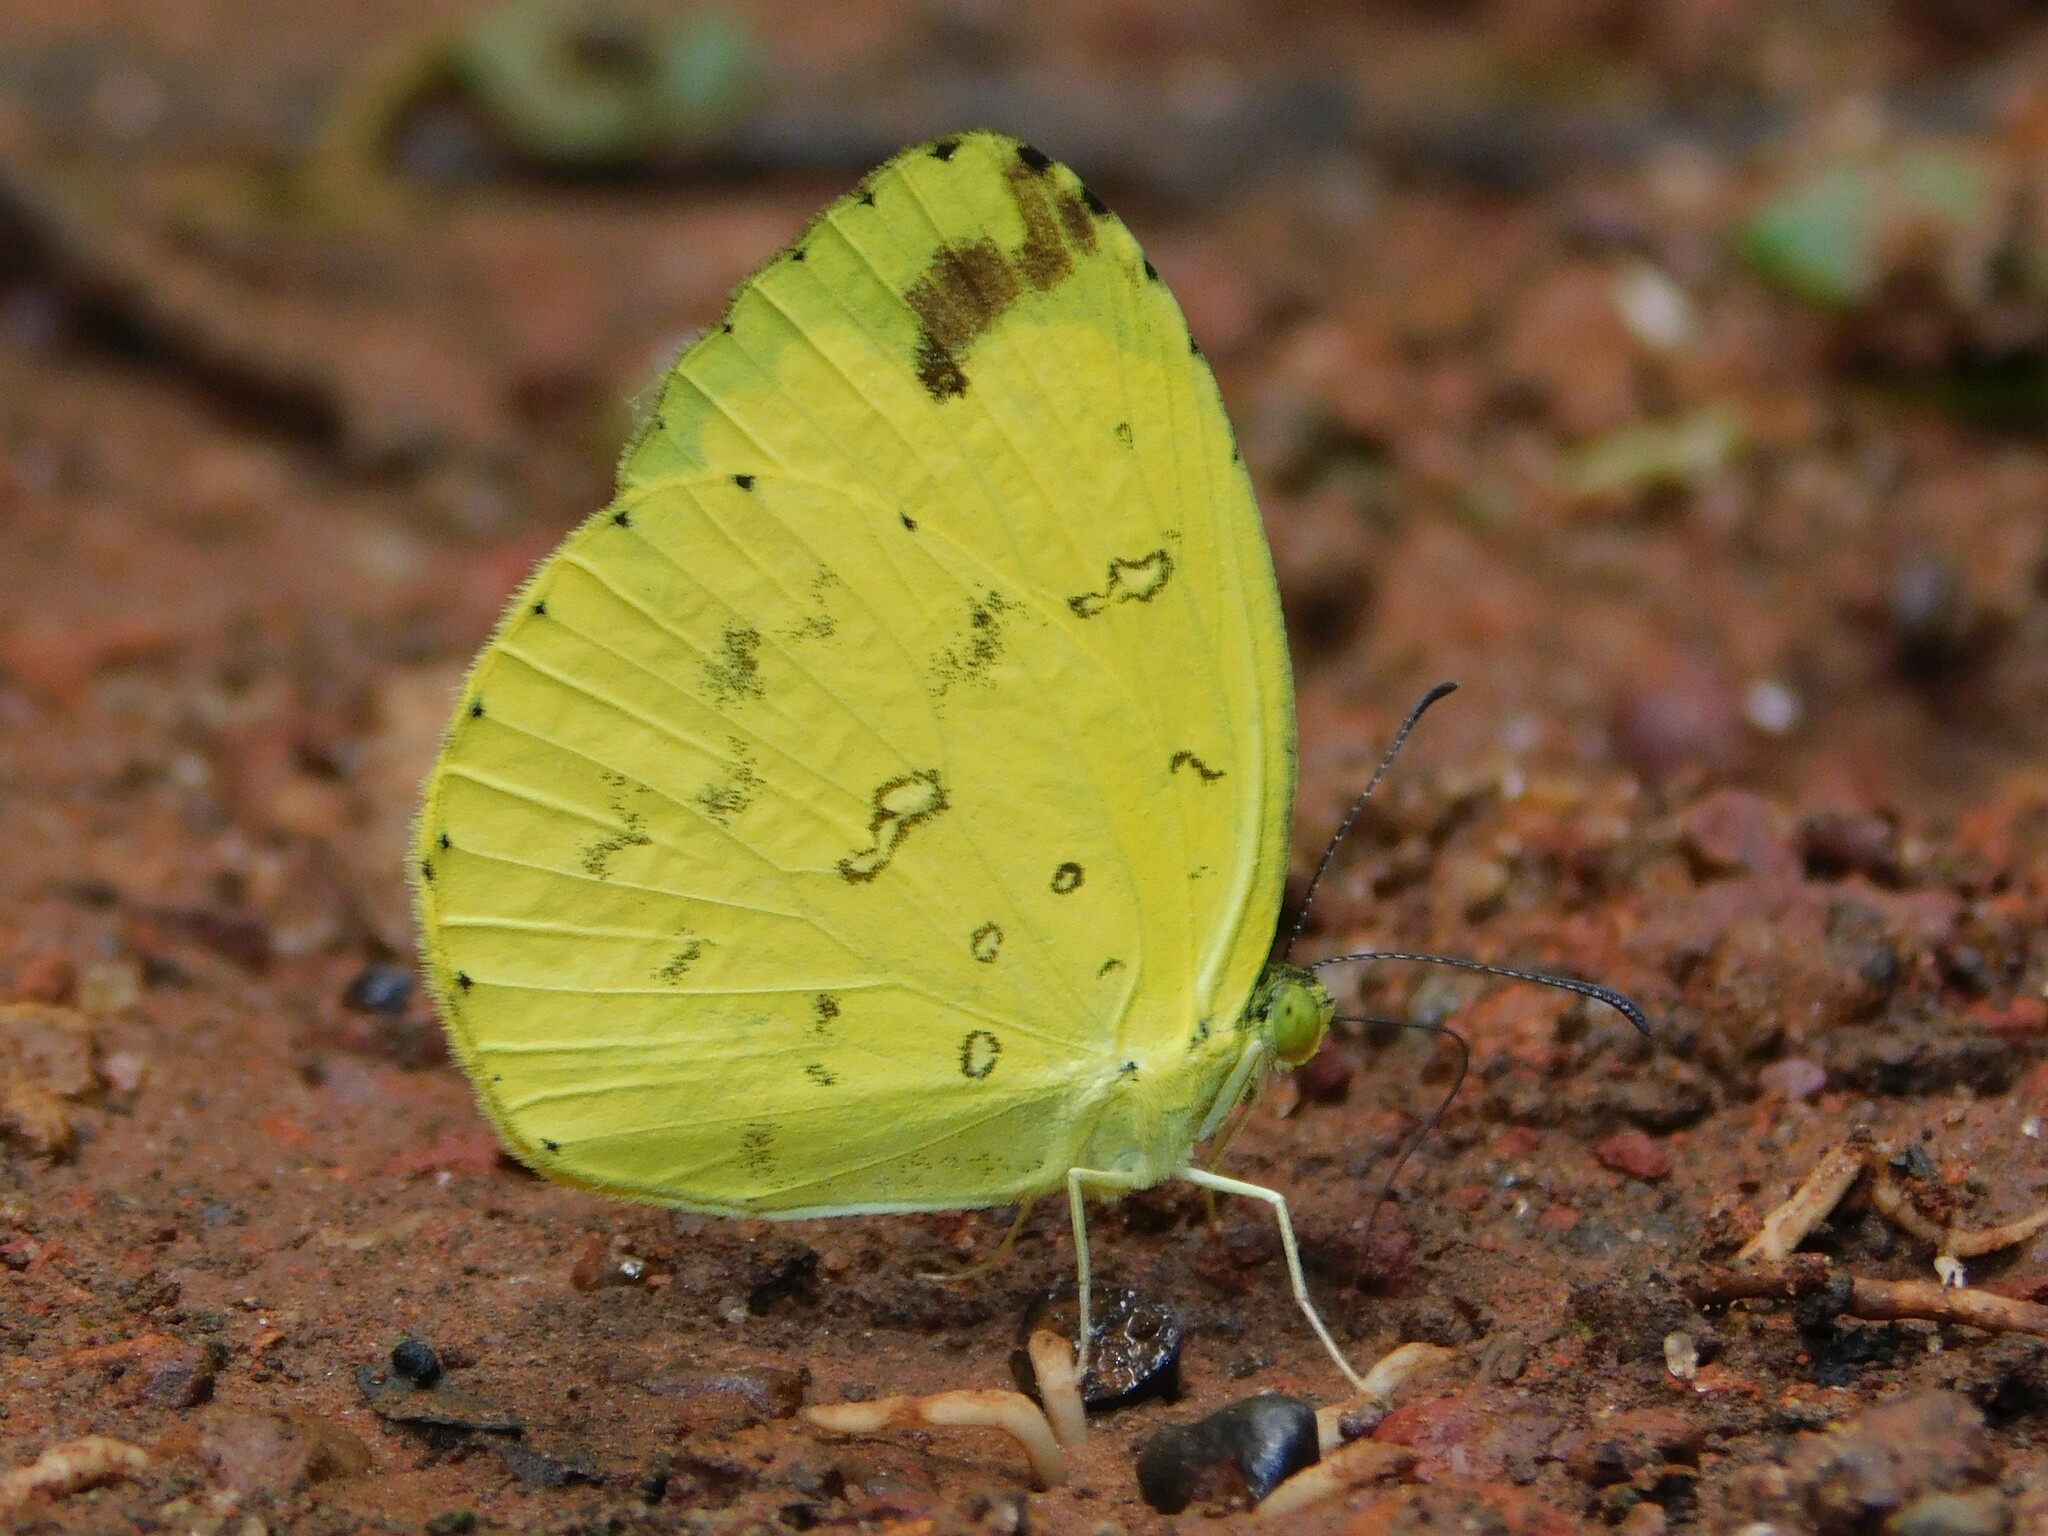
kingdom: Animalia
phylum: Arthropoda
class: Insecta
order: Lepidoptera
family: Pieridae
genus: Eurema
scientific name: Eurema hecabe
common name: Pale grass yellow
